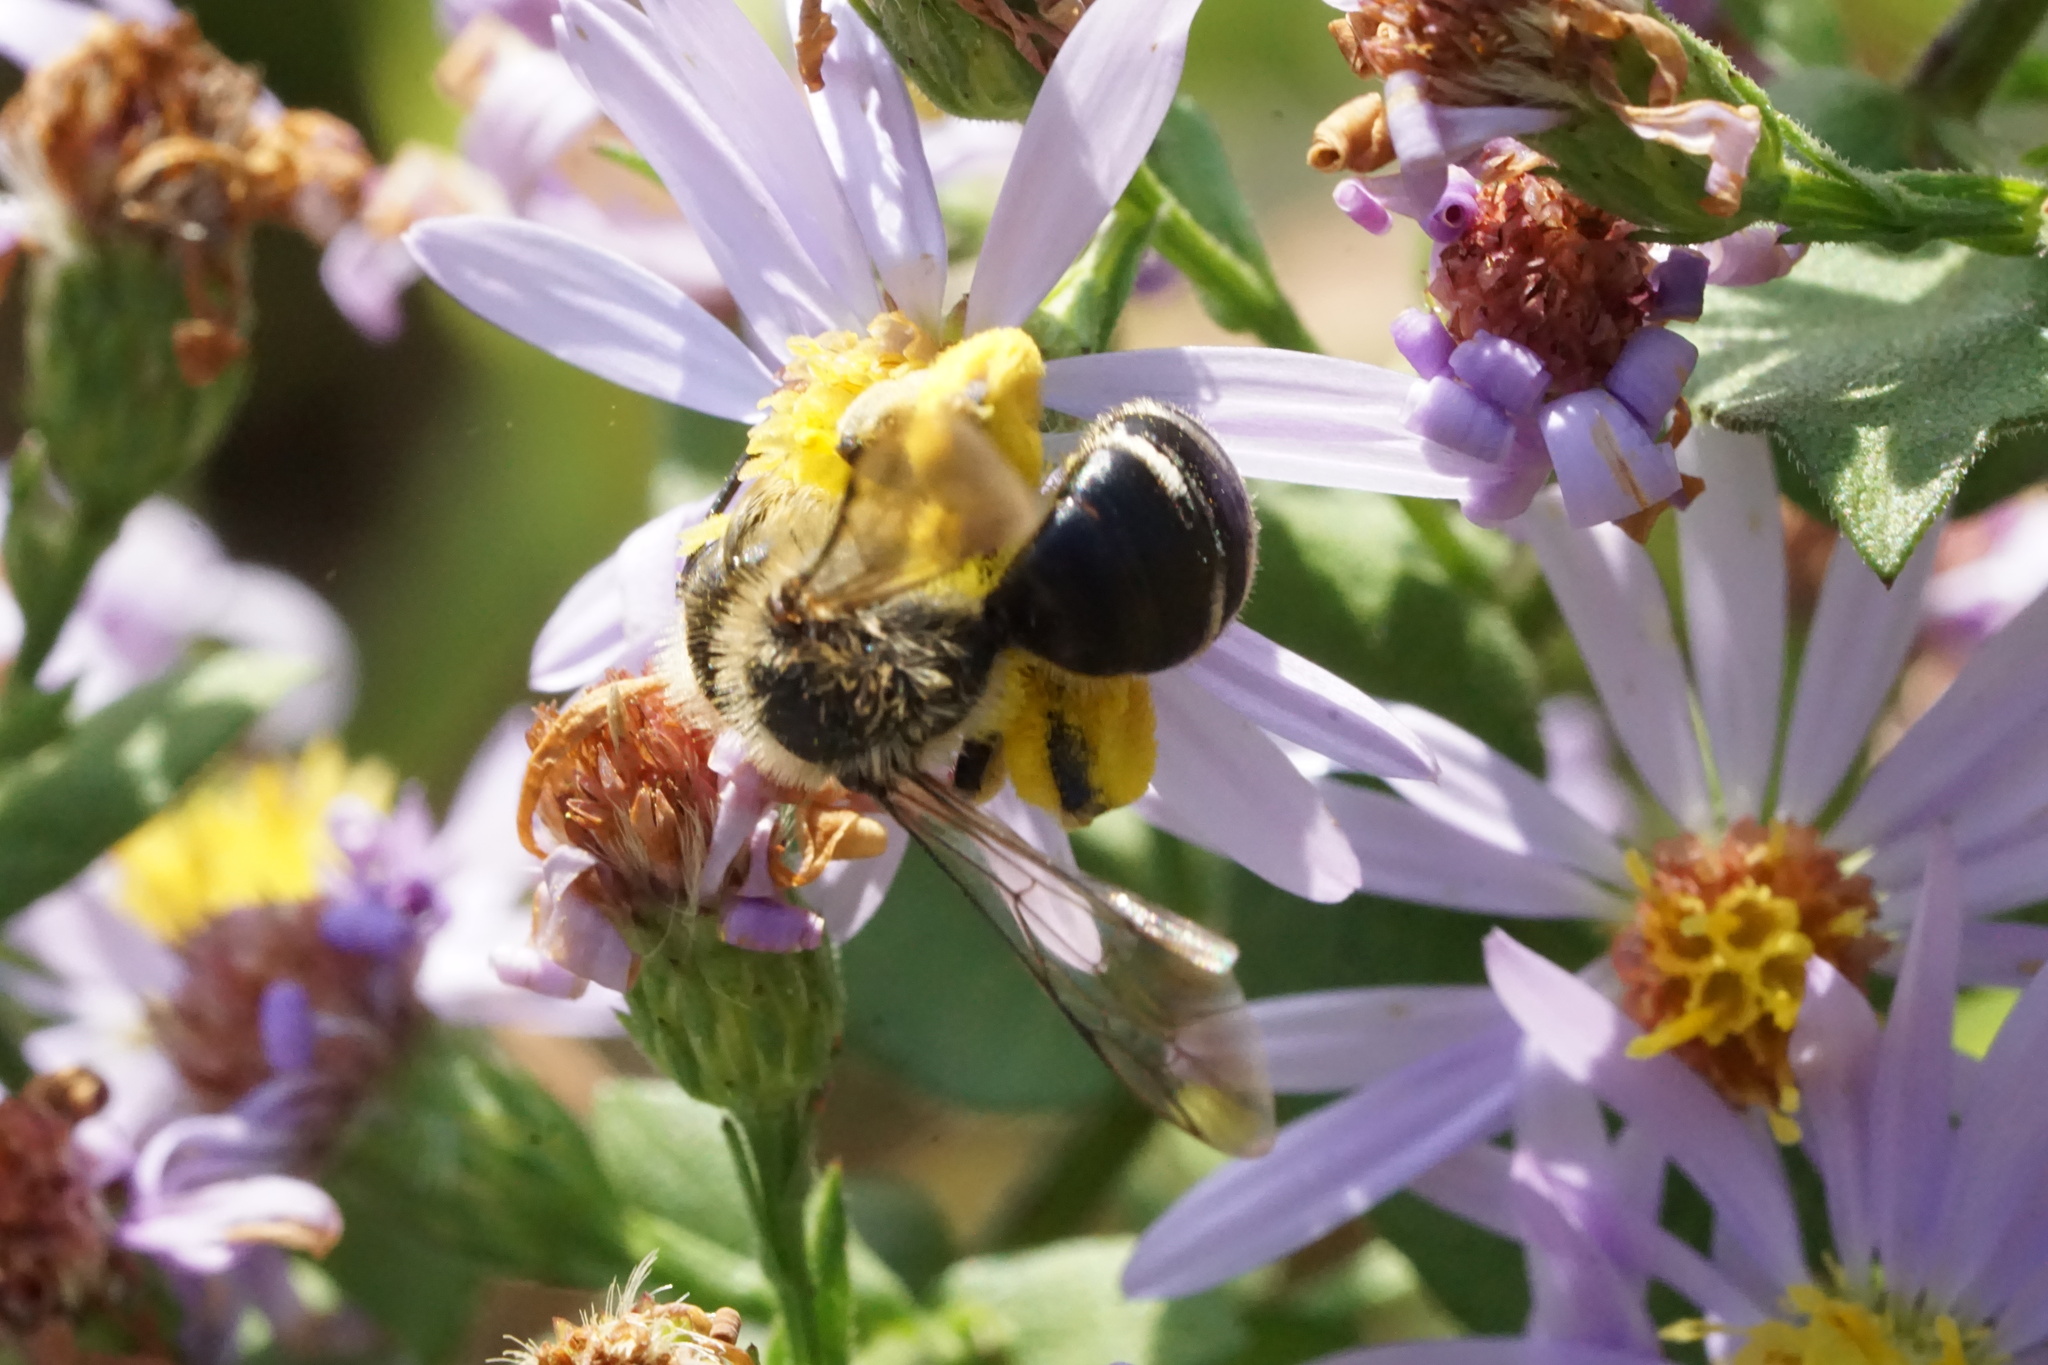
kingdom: Animalia
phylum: Arthropoda
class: Insecta
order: Hymenoptera
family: Andrenidae
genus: Andrena
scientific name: Andrena braccata
